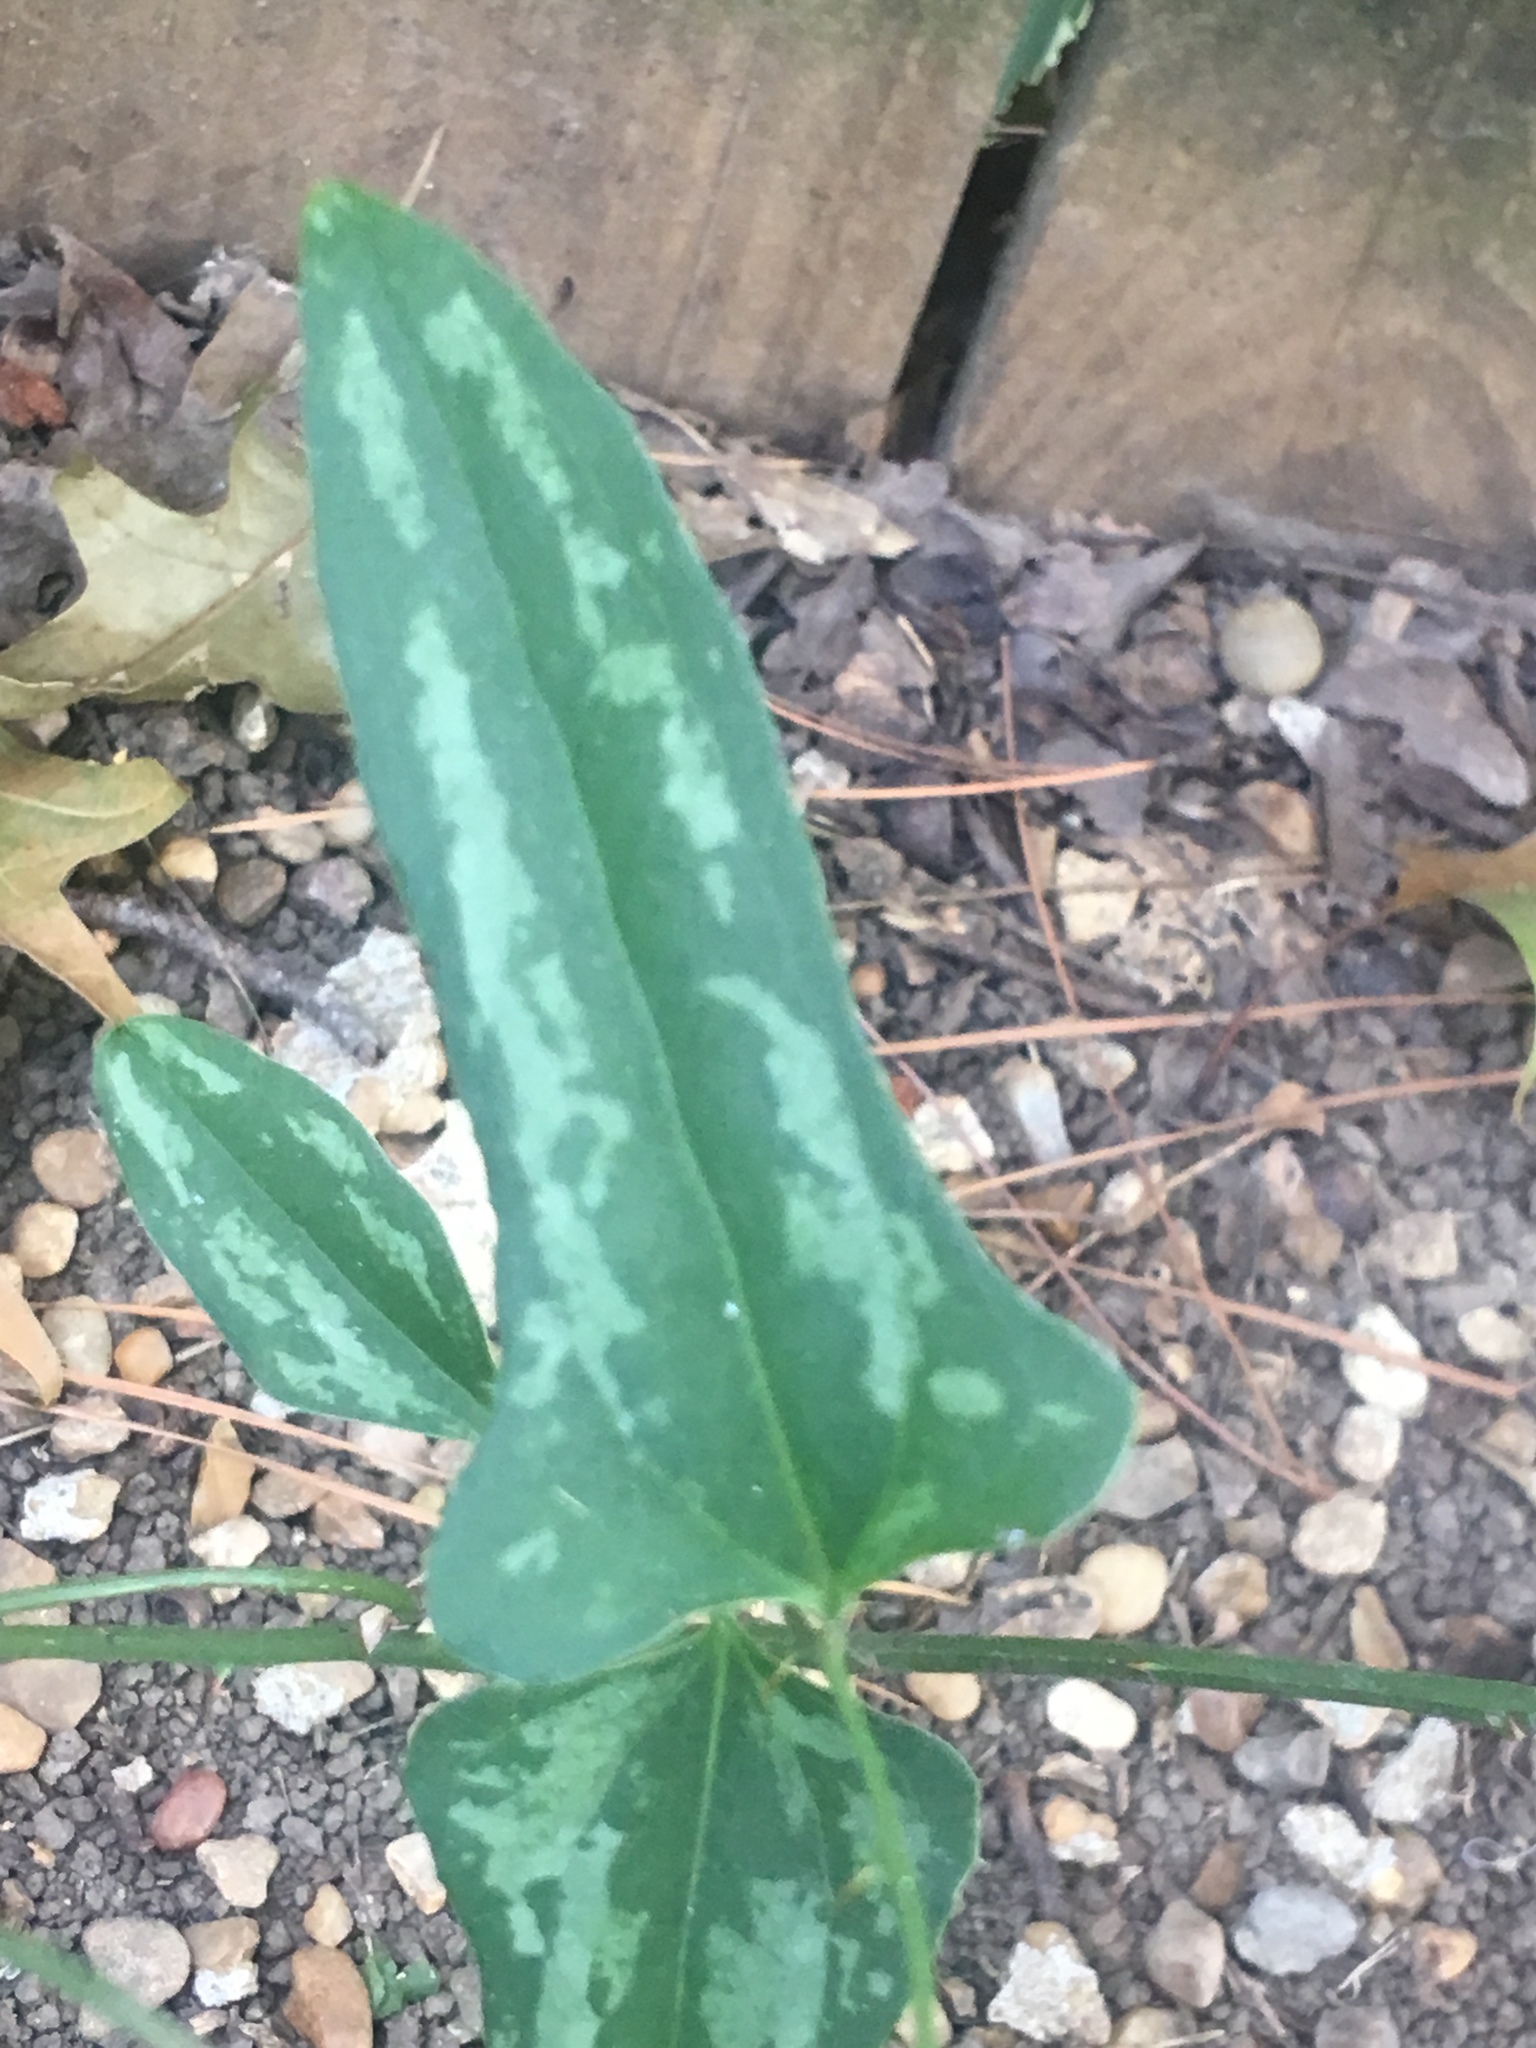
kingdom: Plantae
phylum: Tracheophyta
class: Liliopsida
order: Liliales
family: Smilacaceae
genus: Smilax
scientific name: Smilax bona-nox
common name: Catbrier
